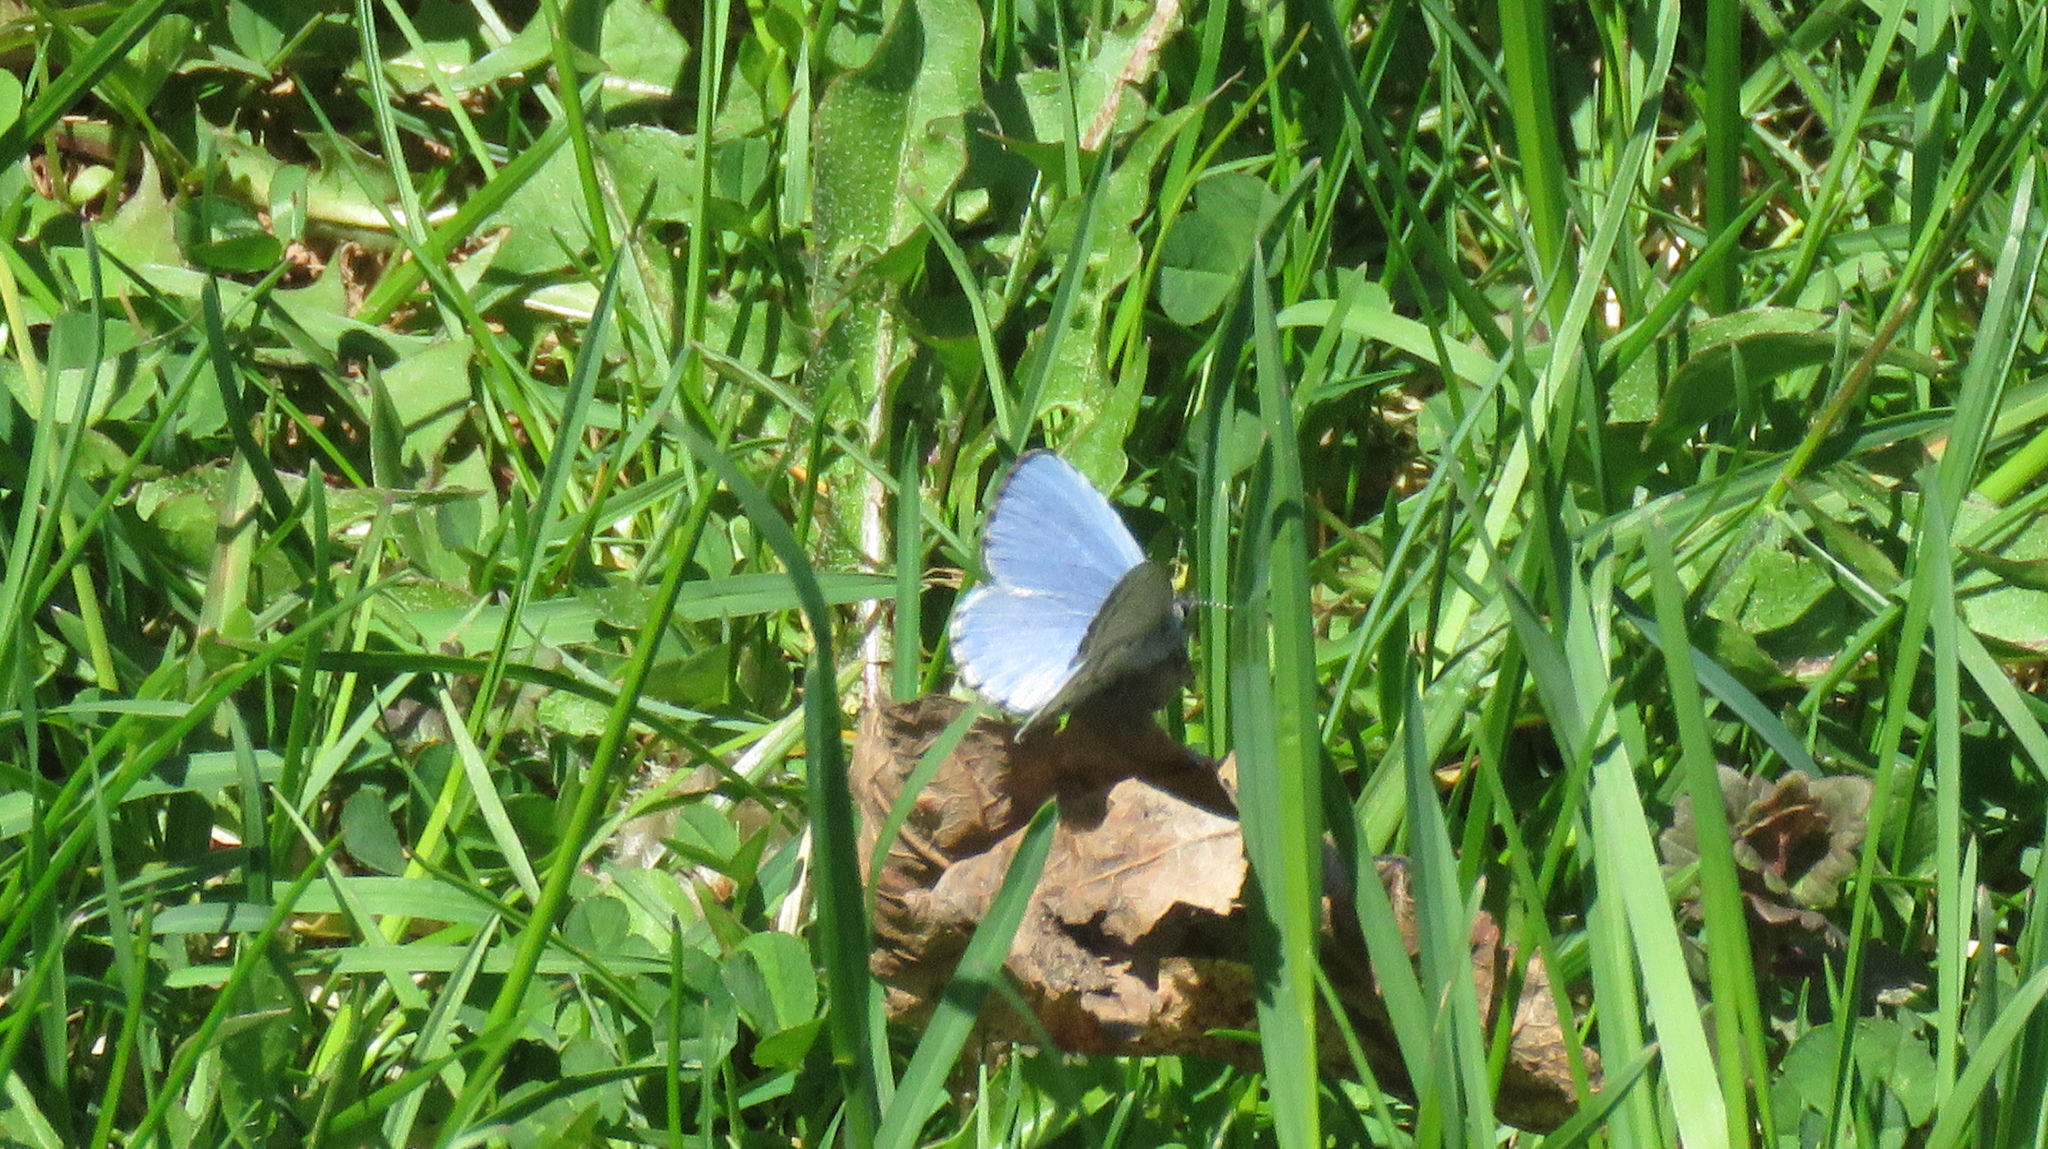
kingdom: Animalia
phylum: Arthropoda
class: Insecta
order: Lepidoptera
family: Lycaenidae
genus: Celastrina
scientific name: Celastrina lucia
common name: Lucia azure
